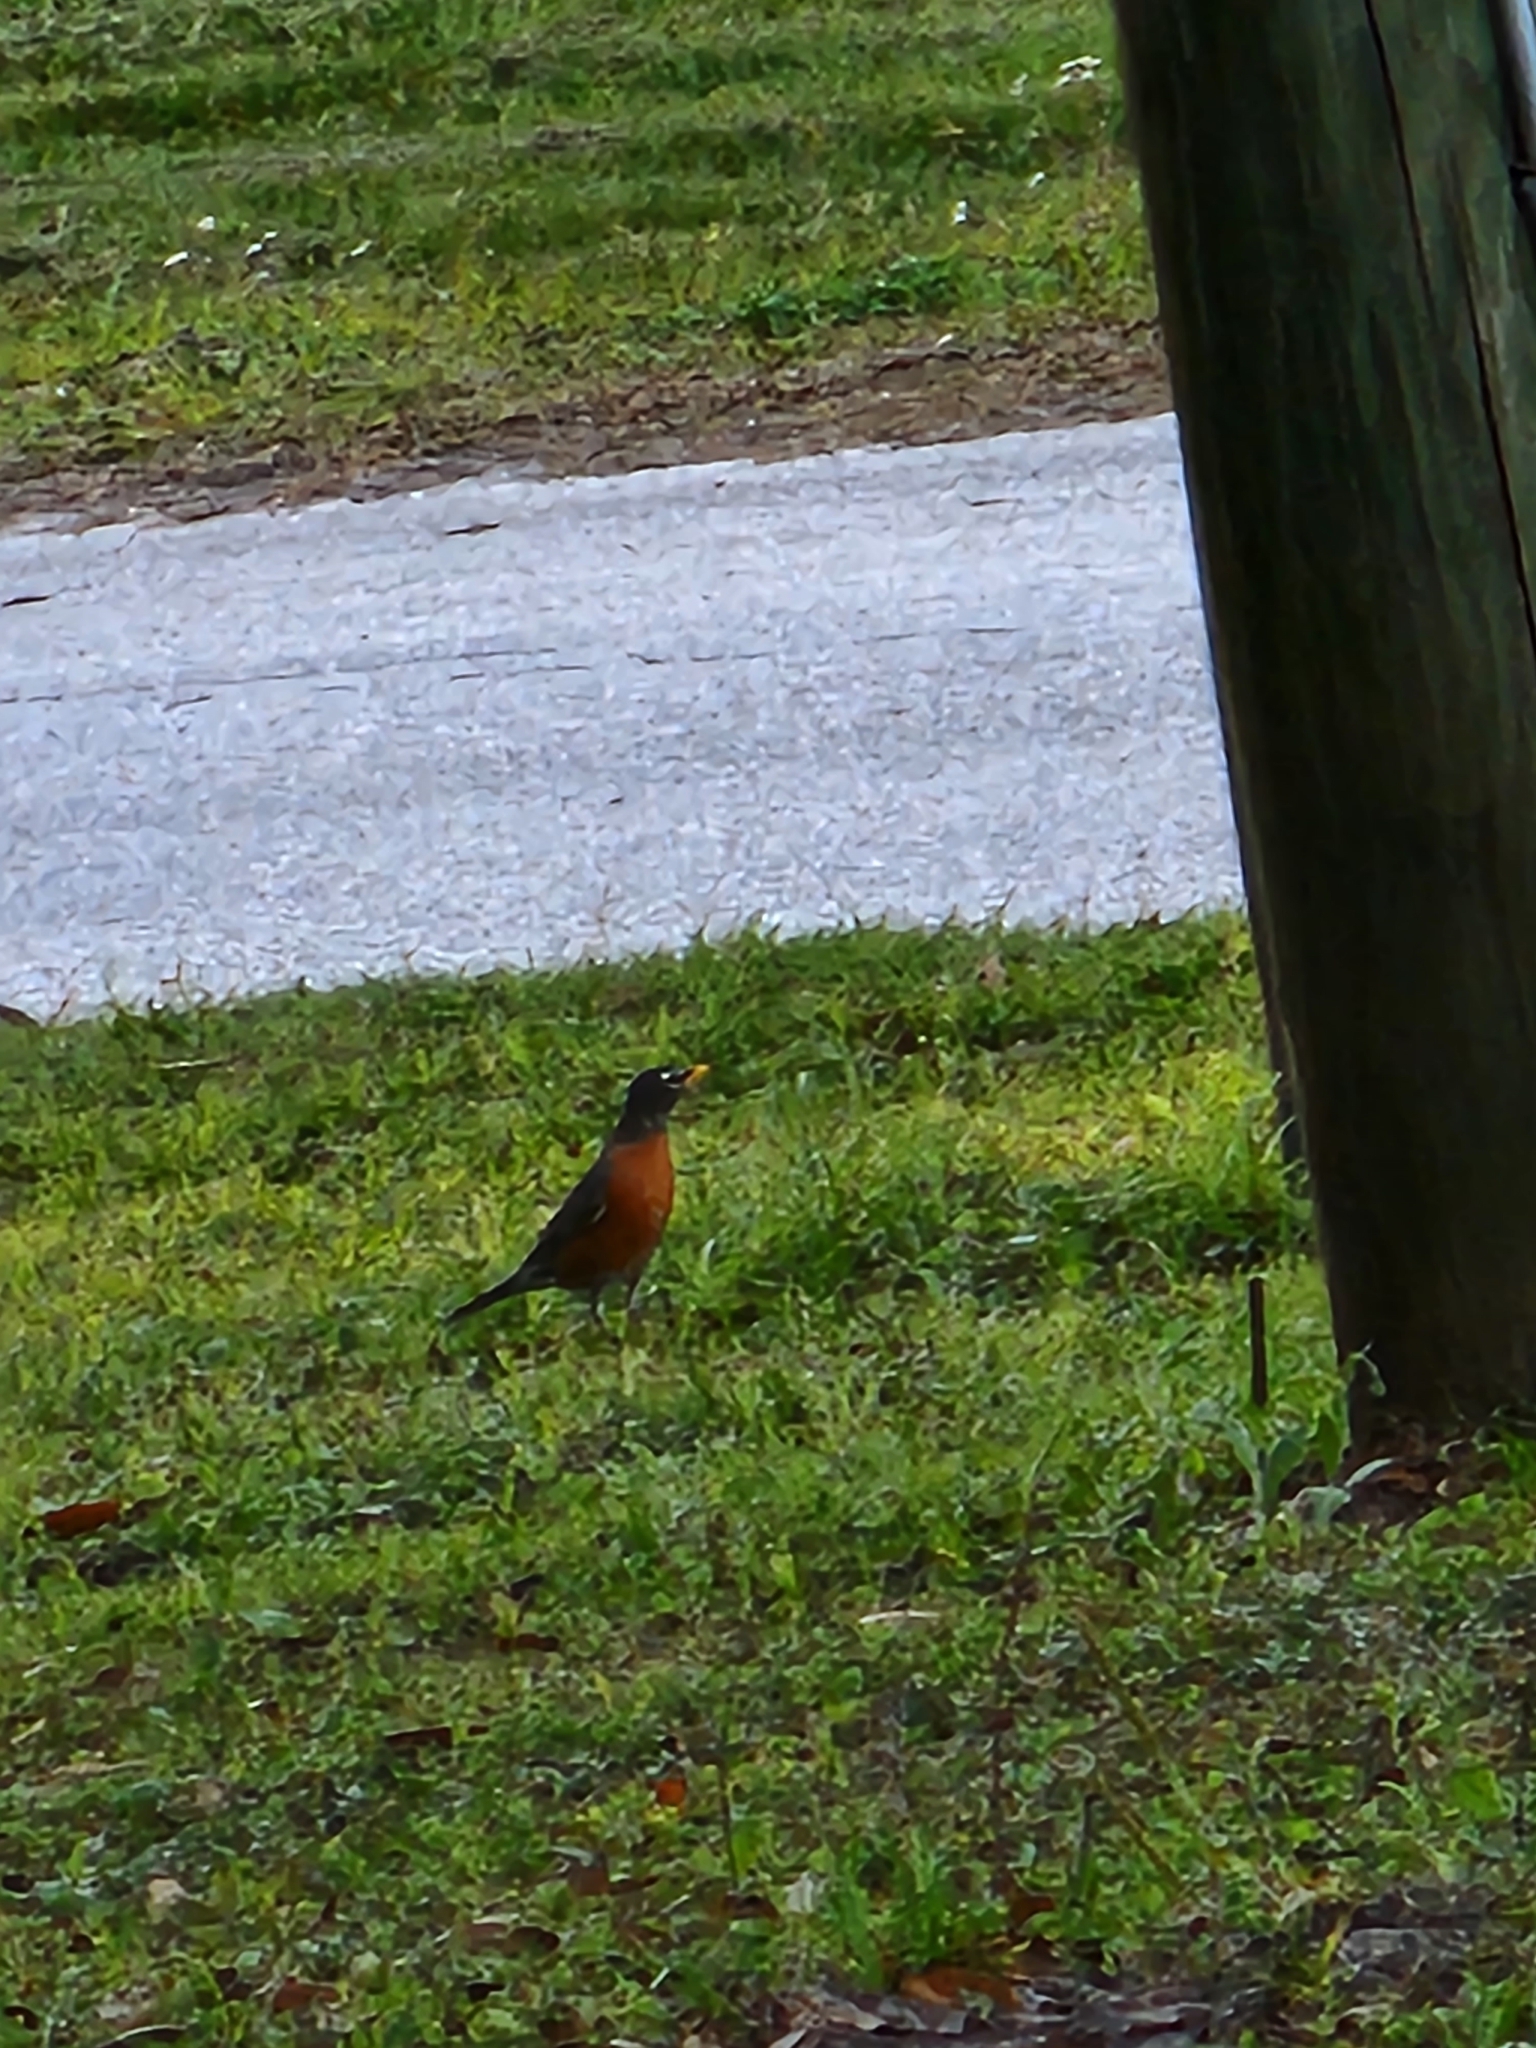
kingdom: Animalia
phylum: Chordata
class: Aves
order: Passeriformes
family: Turdidae
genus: Turdus
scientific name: Turdus migratorius
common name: American robin
